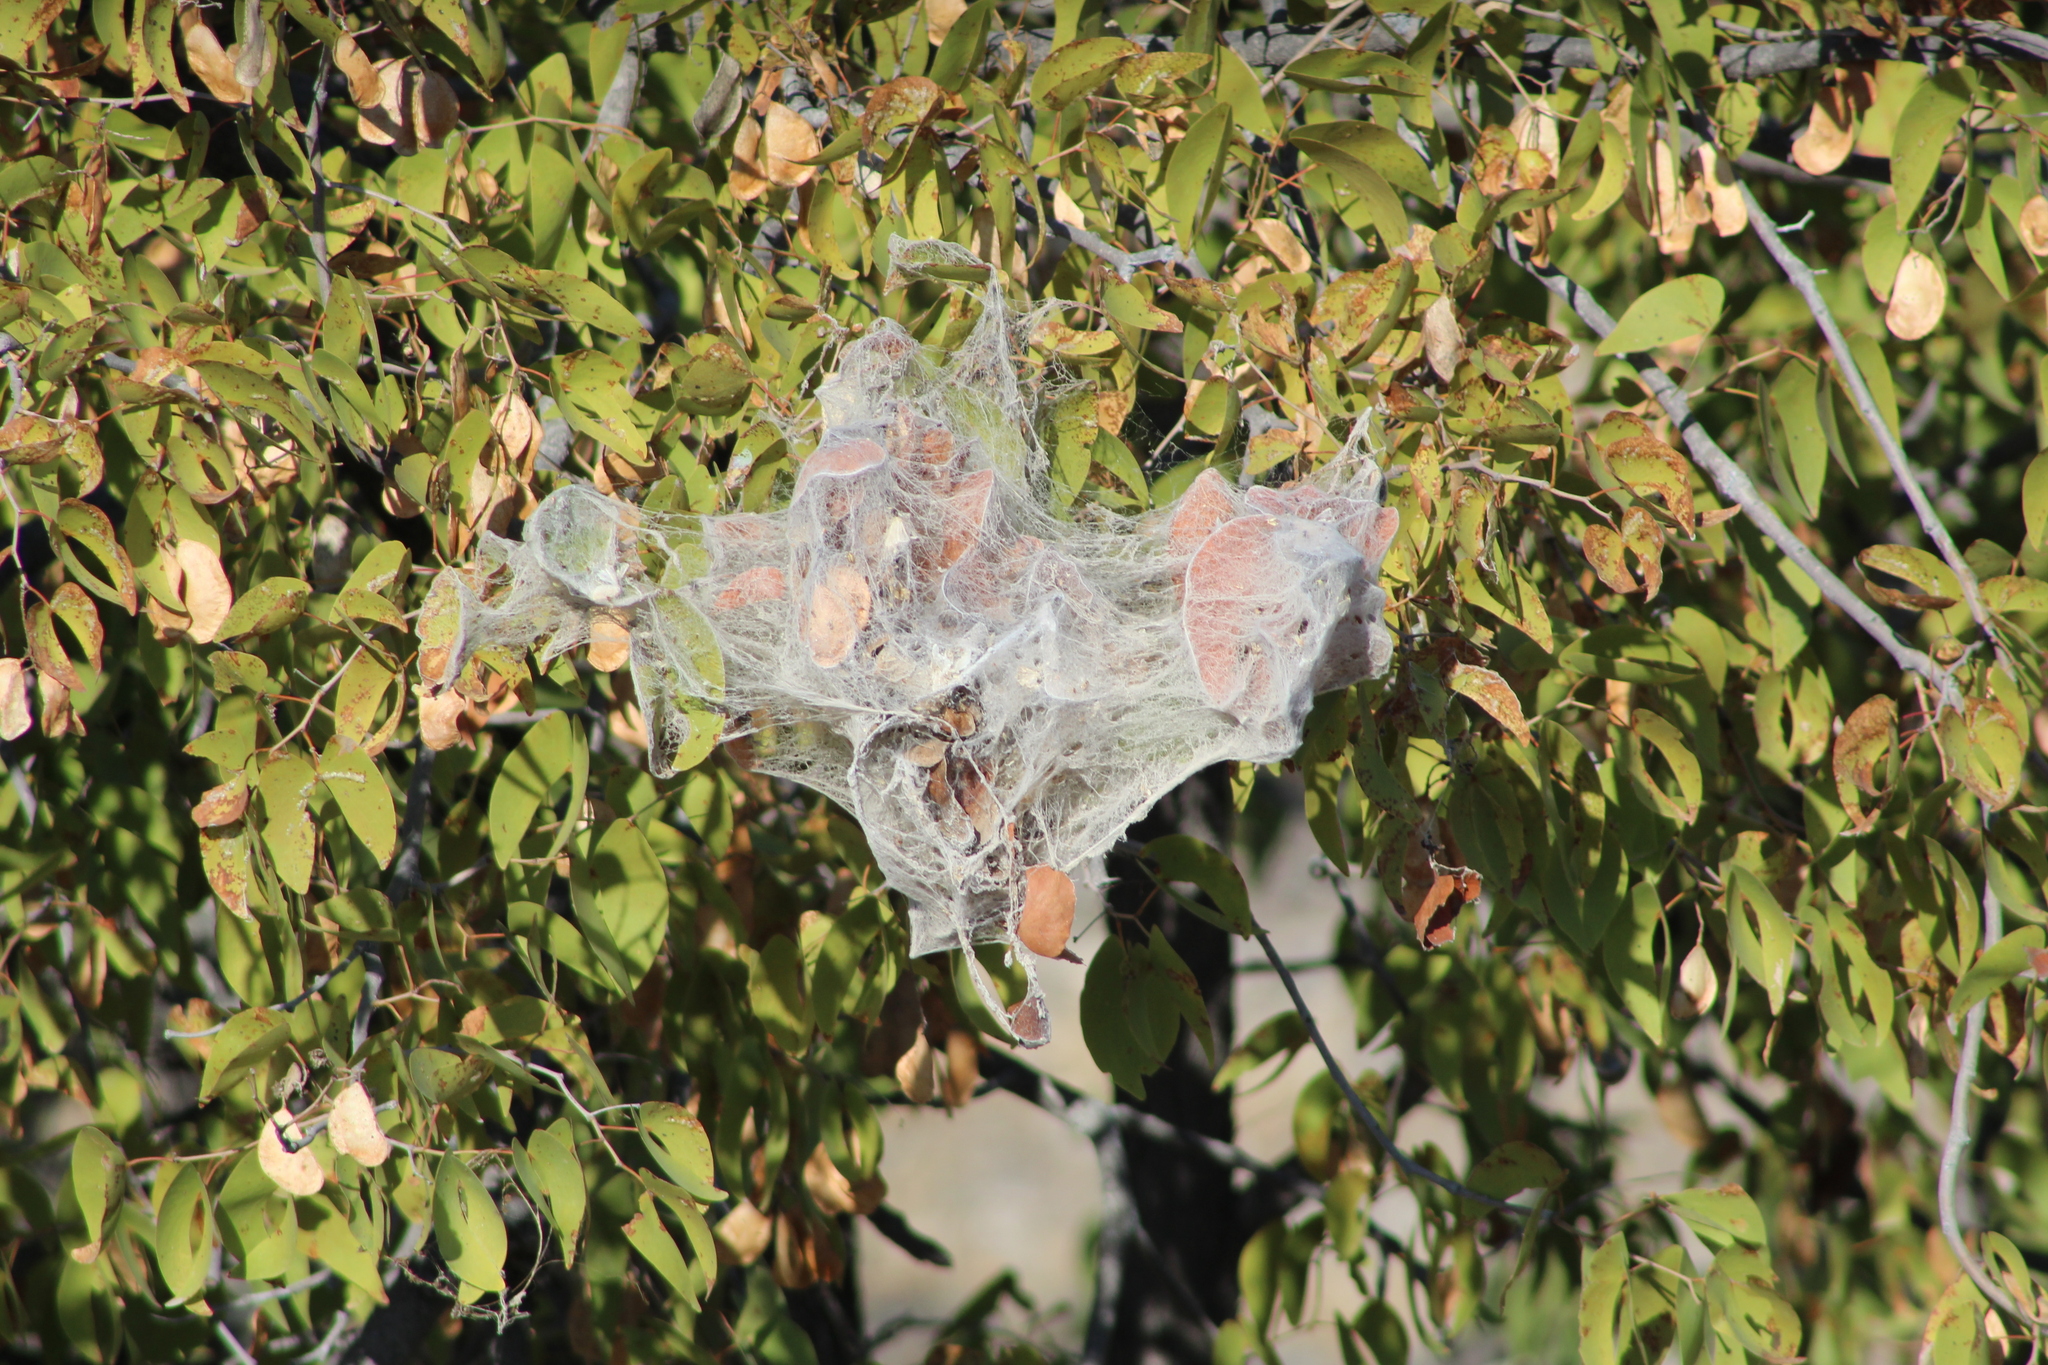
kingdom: Animalia
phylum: Arthropoda
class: Arachnida
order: Araneae
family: Eresidae
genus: Stegodyphus
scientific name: Stegodyphus dumicola
